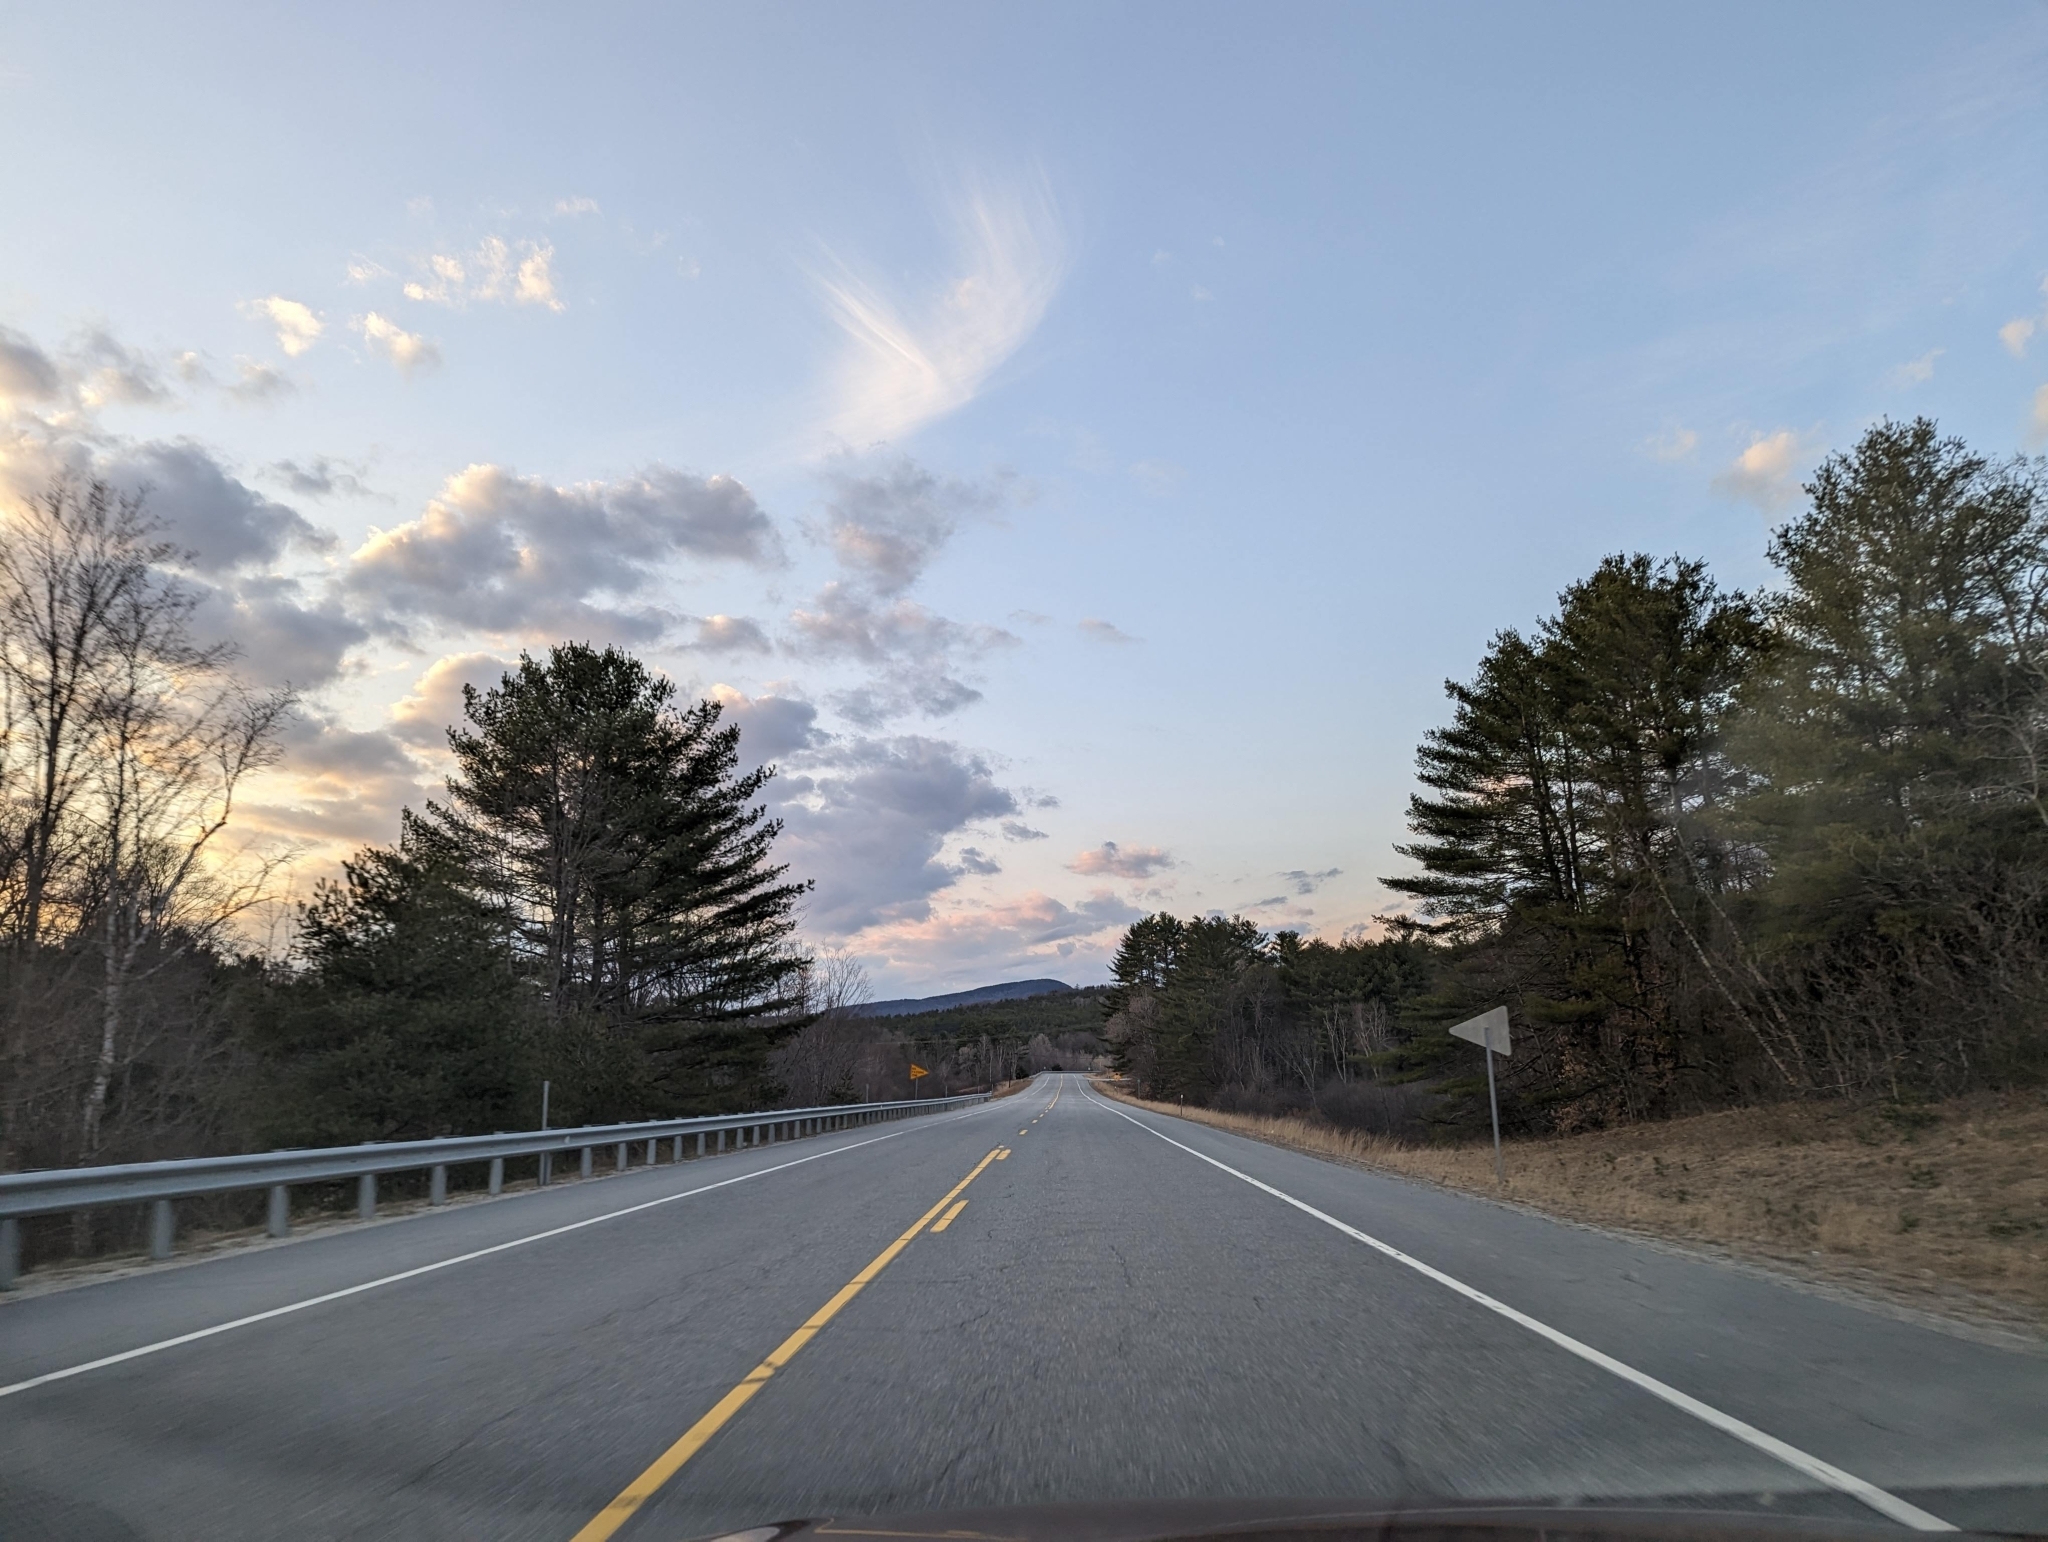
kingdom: Plantae
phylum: Tracheophyta
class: Pinopsida
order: Pinales
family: Pinaceae
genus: Pinus
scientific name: Pinus strobus
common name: Weymouth pine
